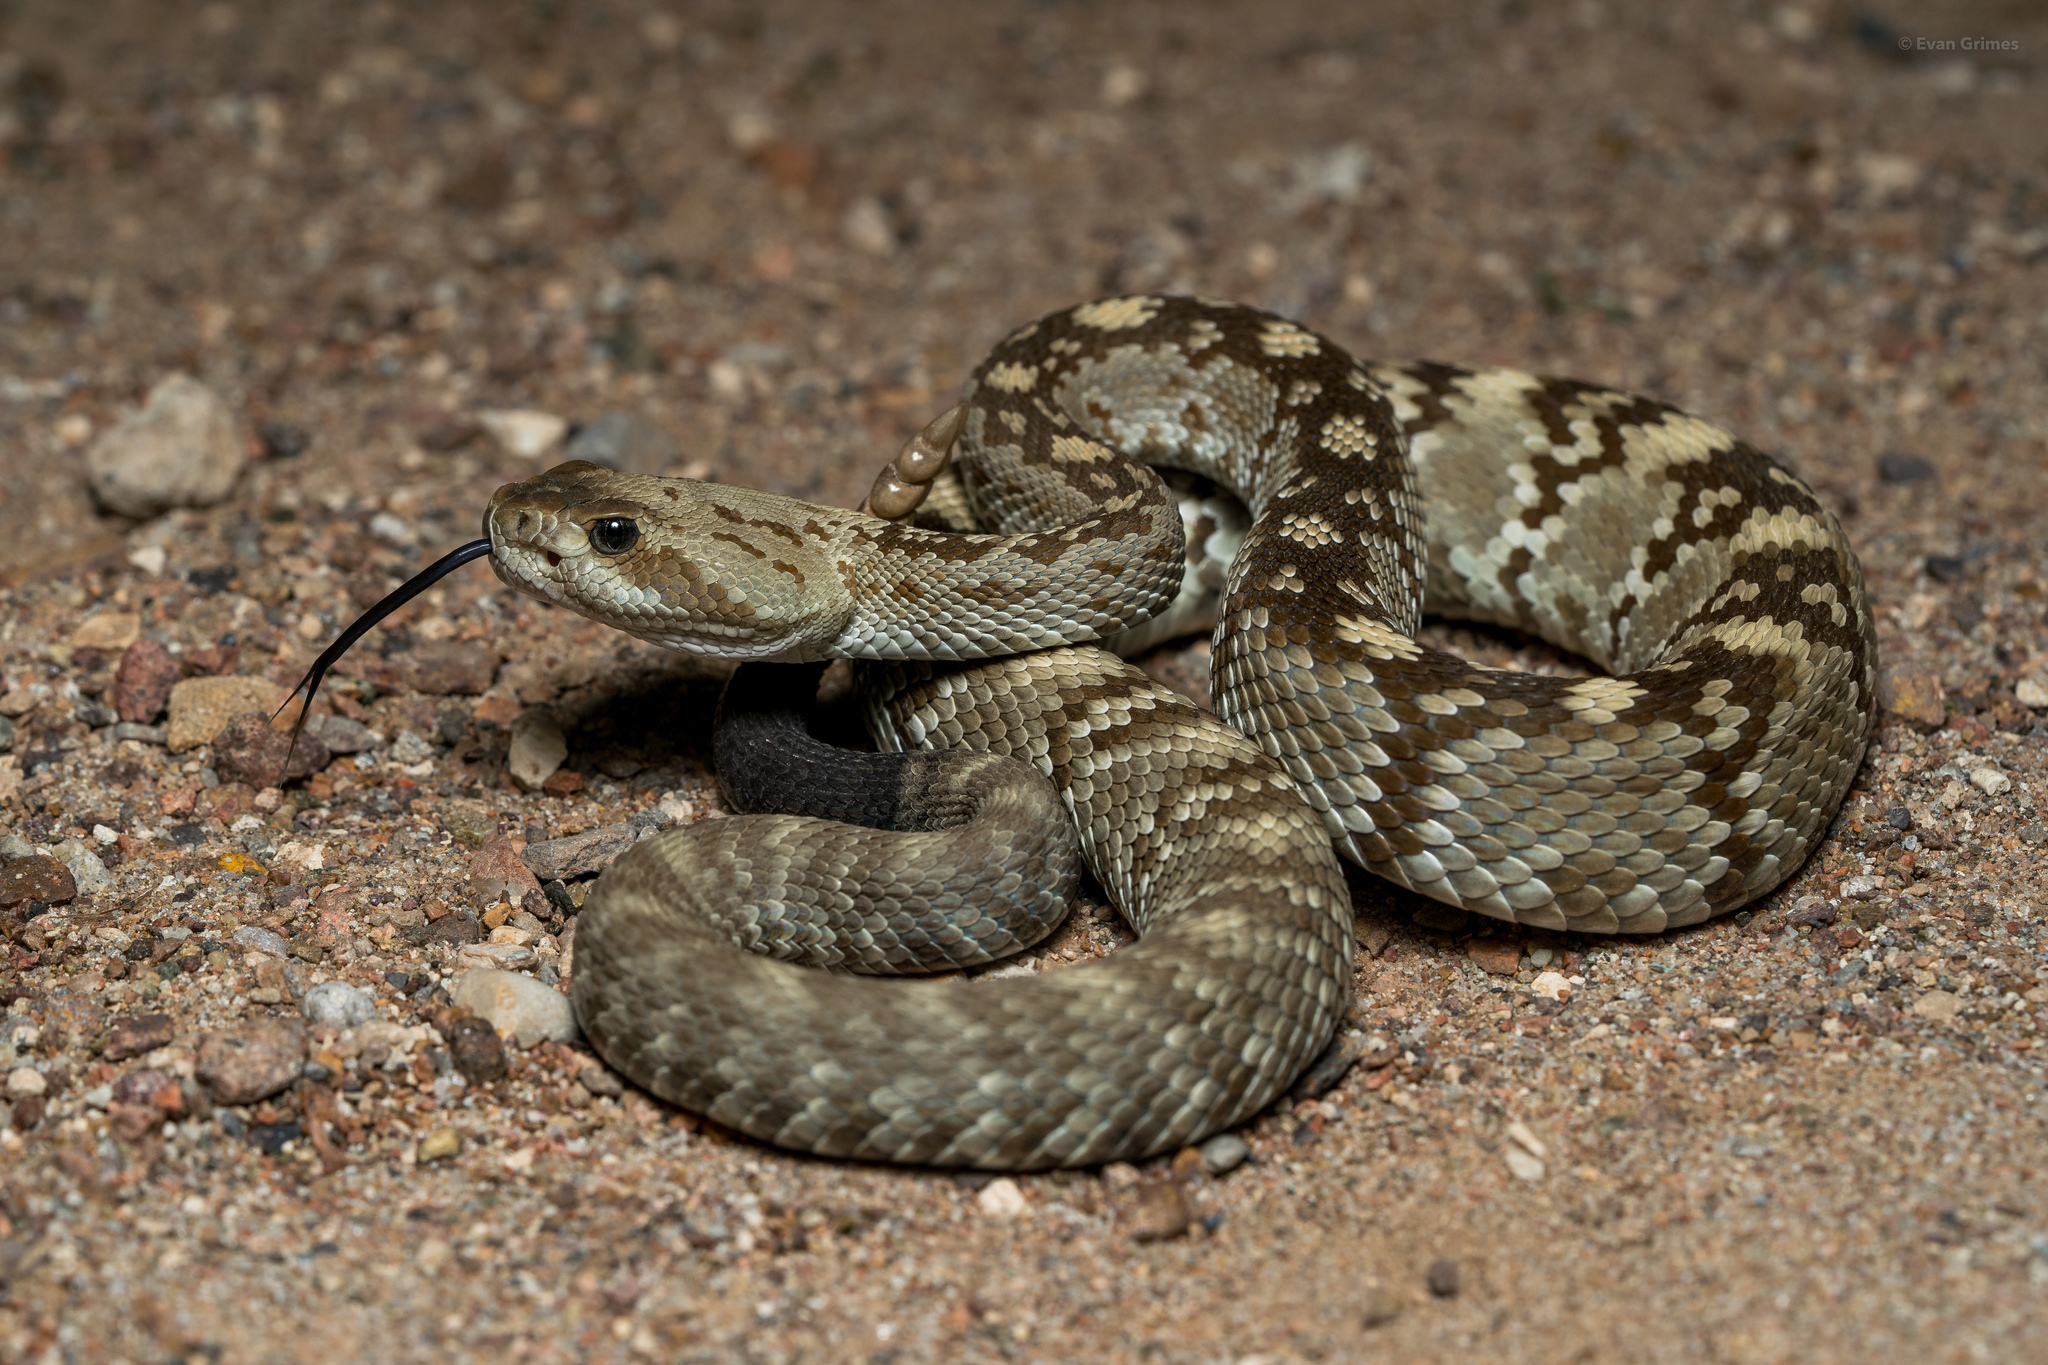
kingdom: Animalia
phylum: Chordata
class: Squamata
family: Viperidae
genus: Crotalus
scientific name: Crotalus ornatus
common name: Black-tailed rattlesnake
